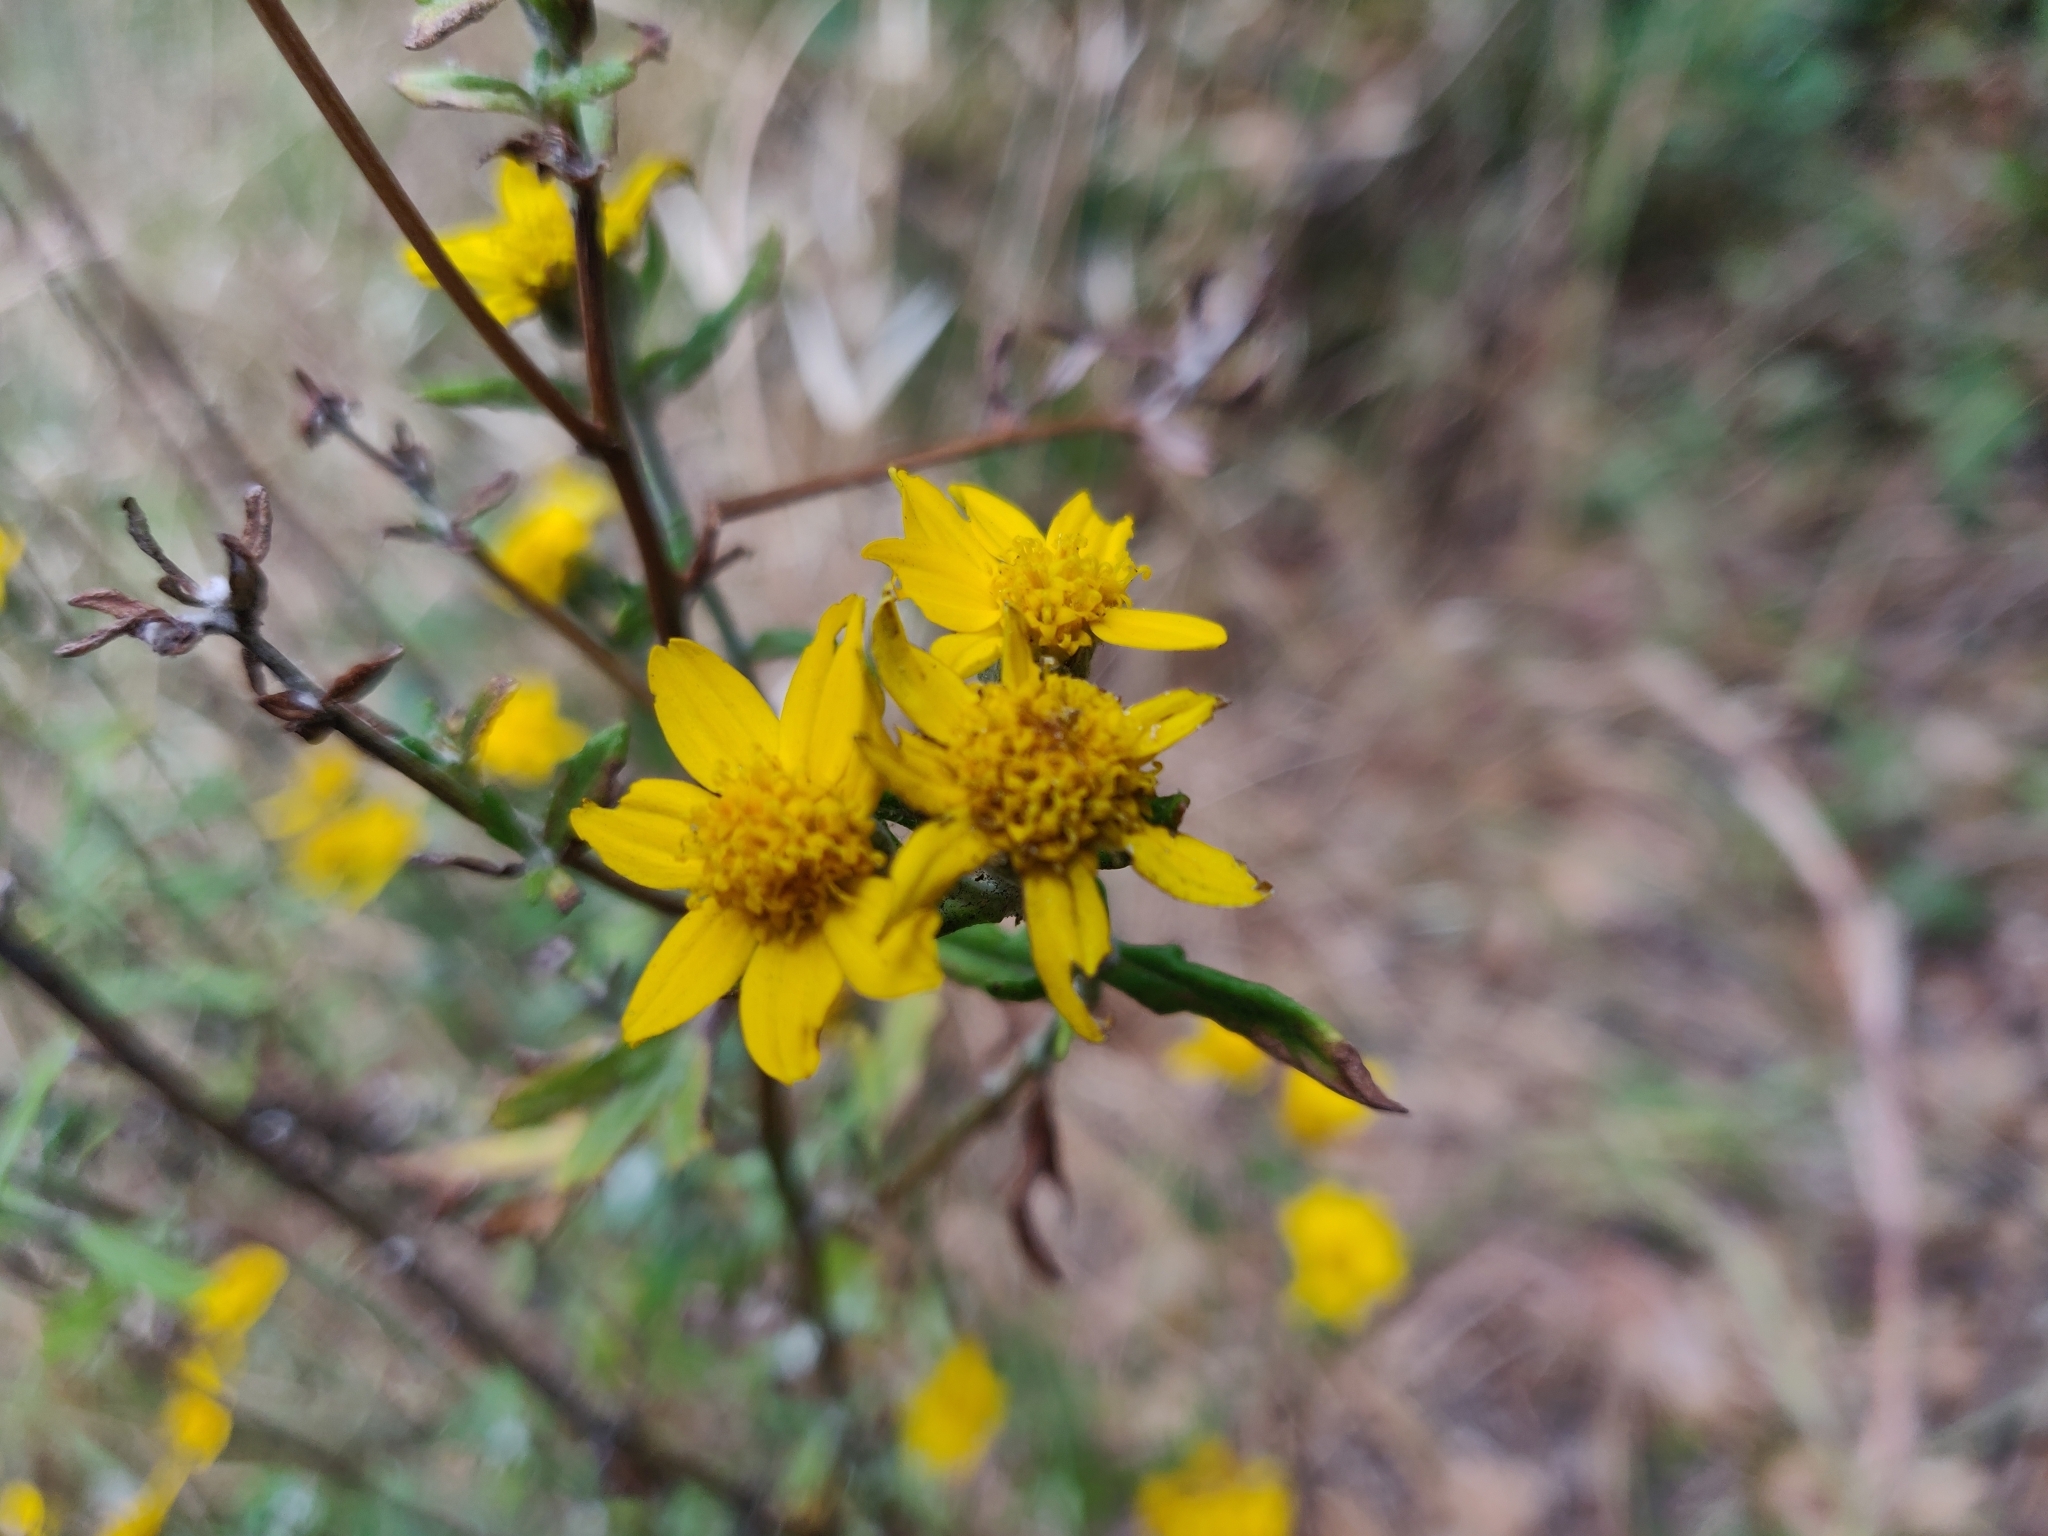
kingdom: Plantae
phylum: Tracheophyta
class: Magnoliopsida
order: Asterales
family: Asteraceae
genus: Eriophyllum
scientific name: Eriophyllum latilobum
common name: San mateo woolly-sunflower
